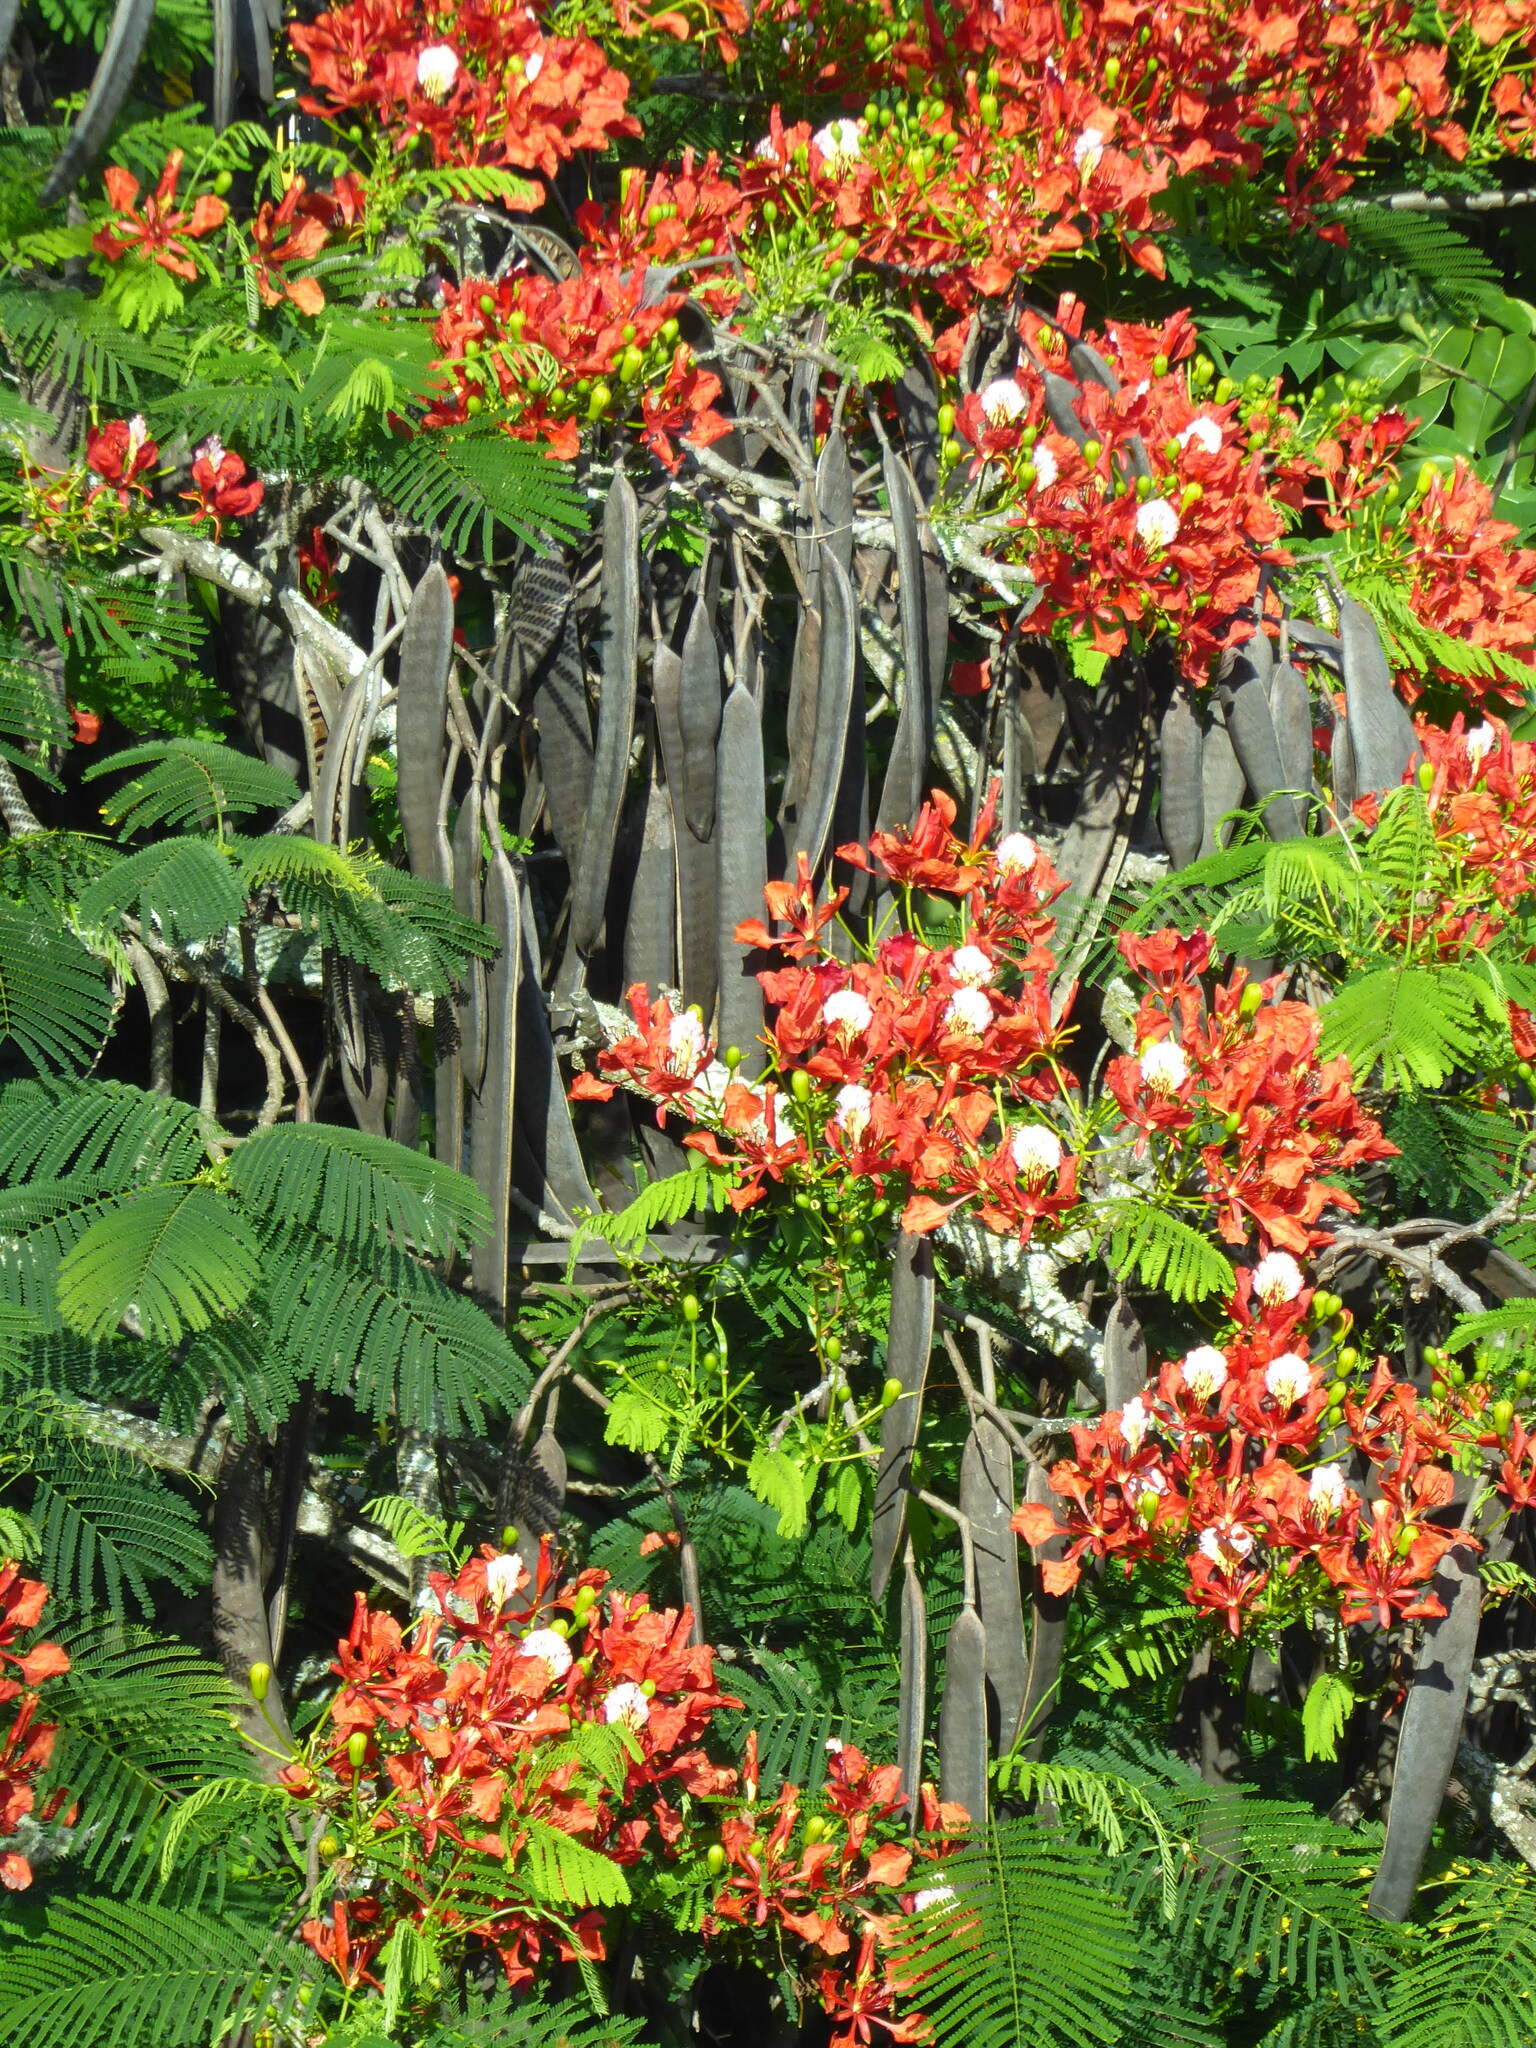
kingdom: Plantae
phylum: Tracheophyta
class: Magnoliopsida
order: Fabales
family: Fabaceae
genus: Delonix
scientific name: Delonix regia
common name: Royal poinciana
